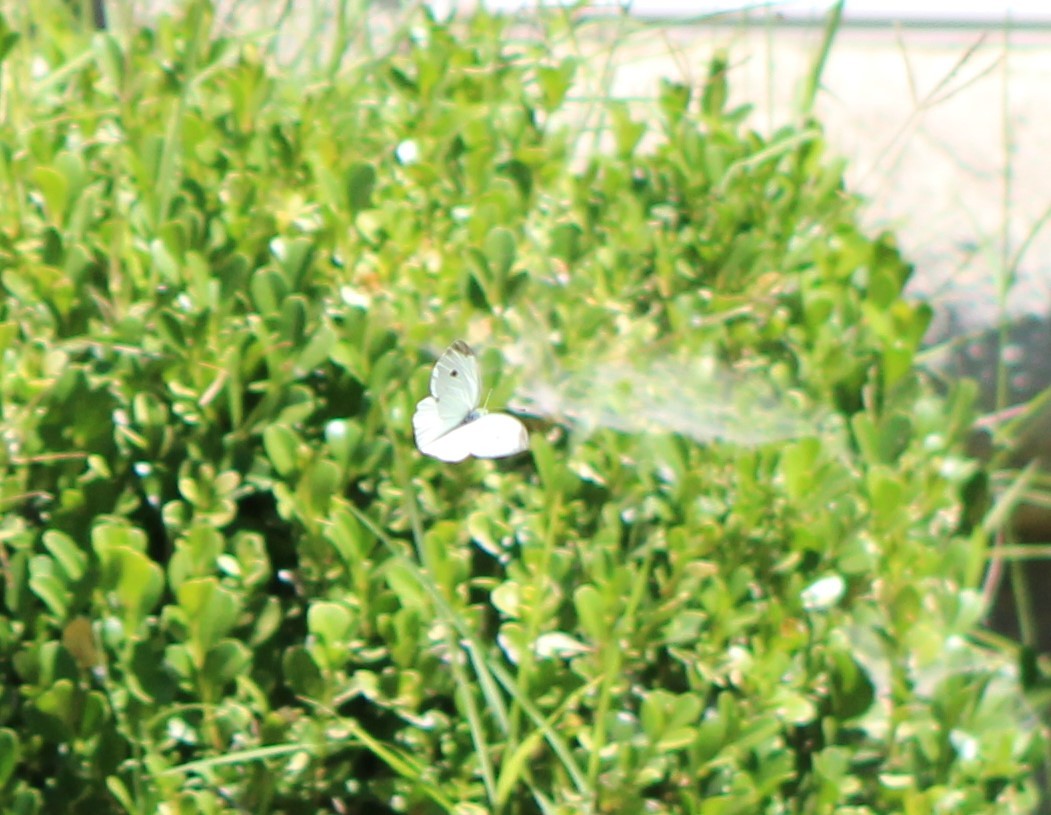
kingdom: Animalia
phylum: Arthropoda
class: Insecta
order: Lepidoptera
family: Pieridae
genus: Pieris
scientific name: Pieris rapae
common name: Small white
